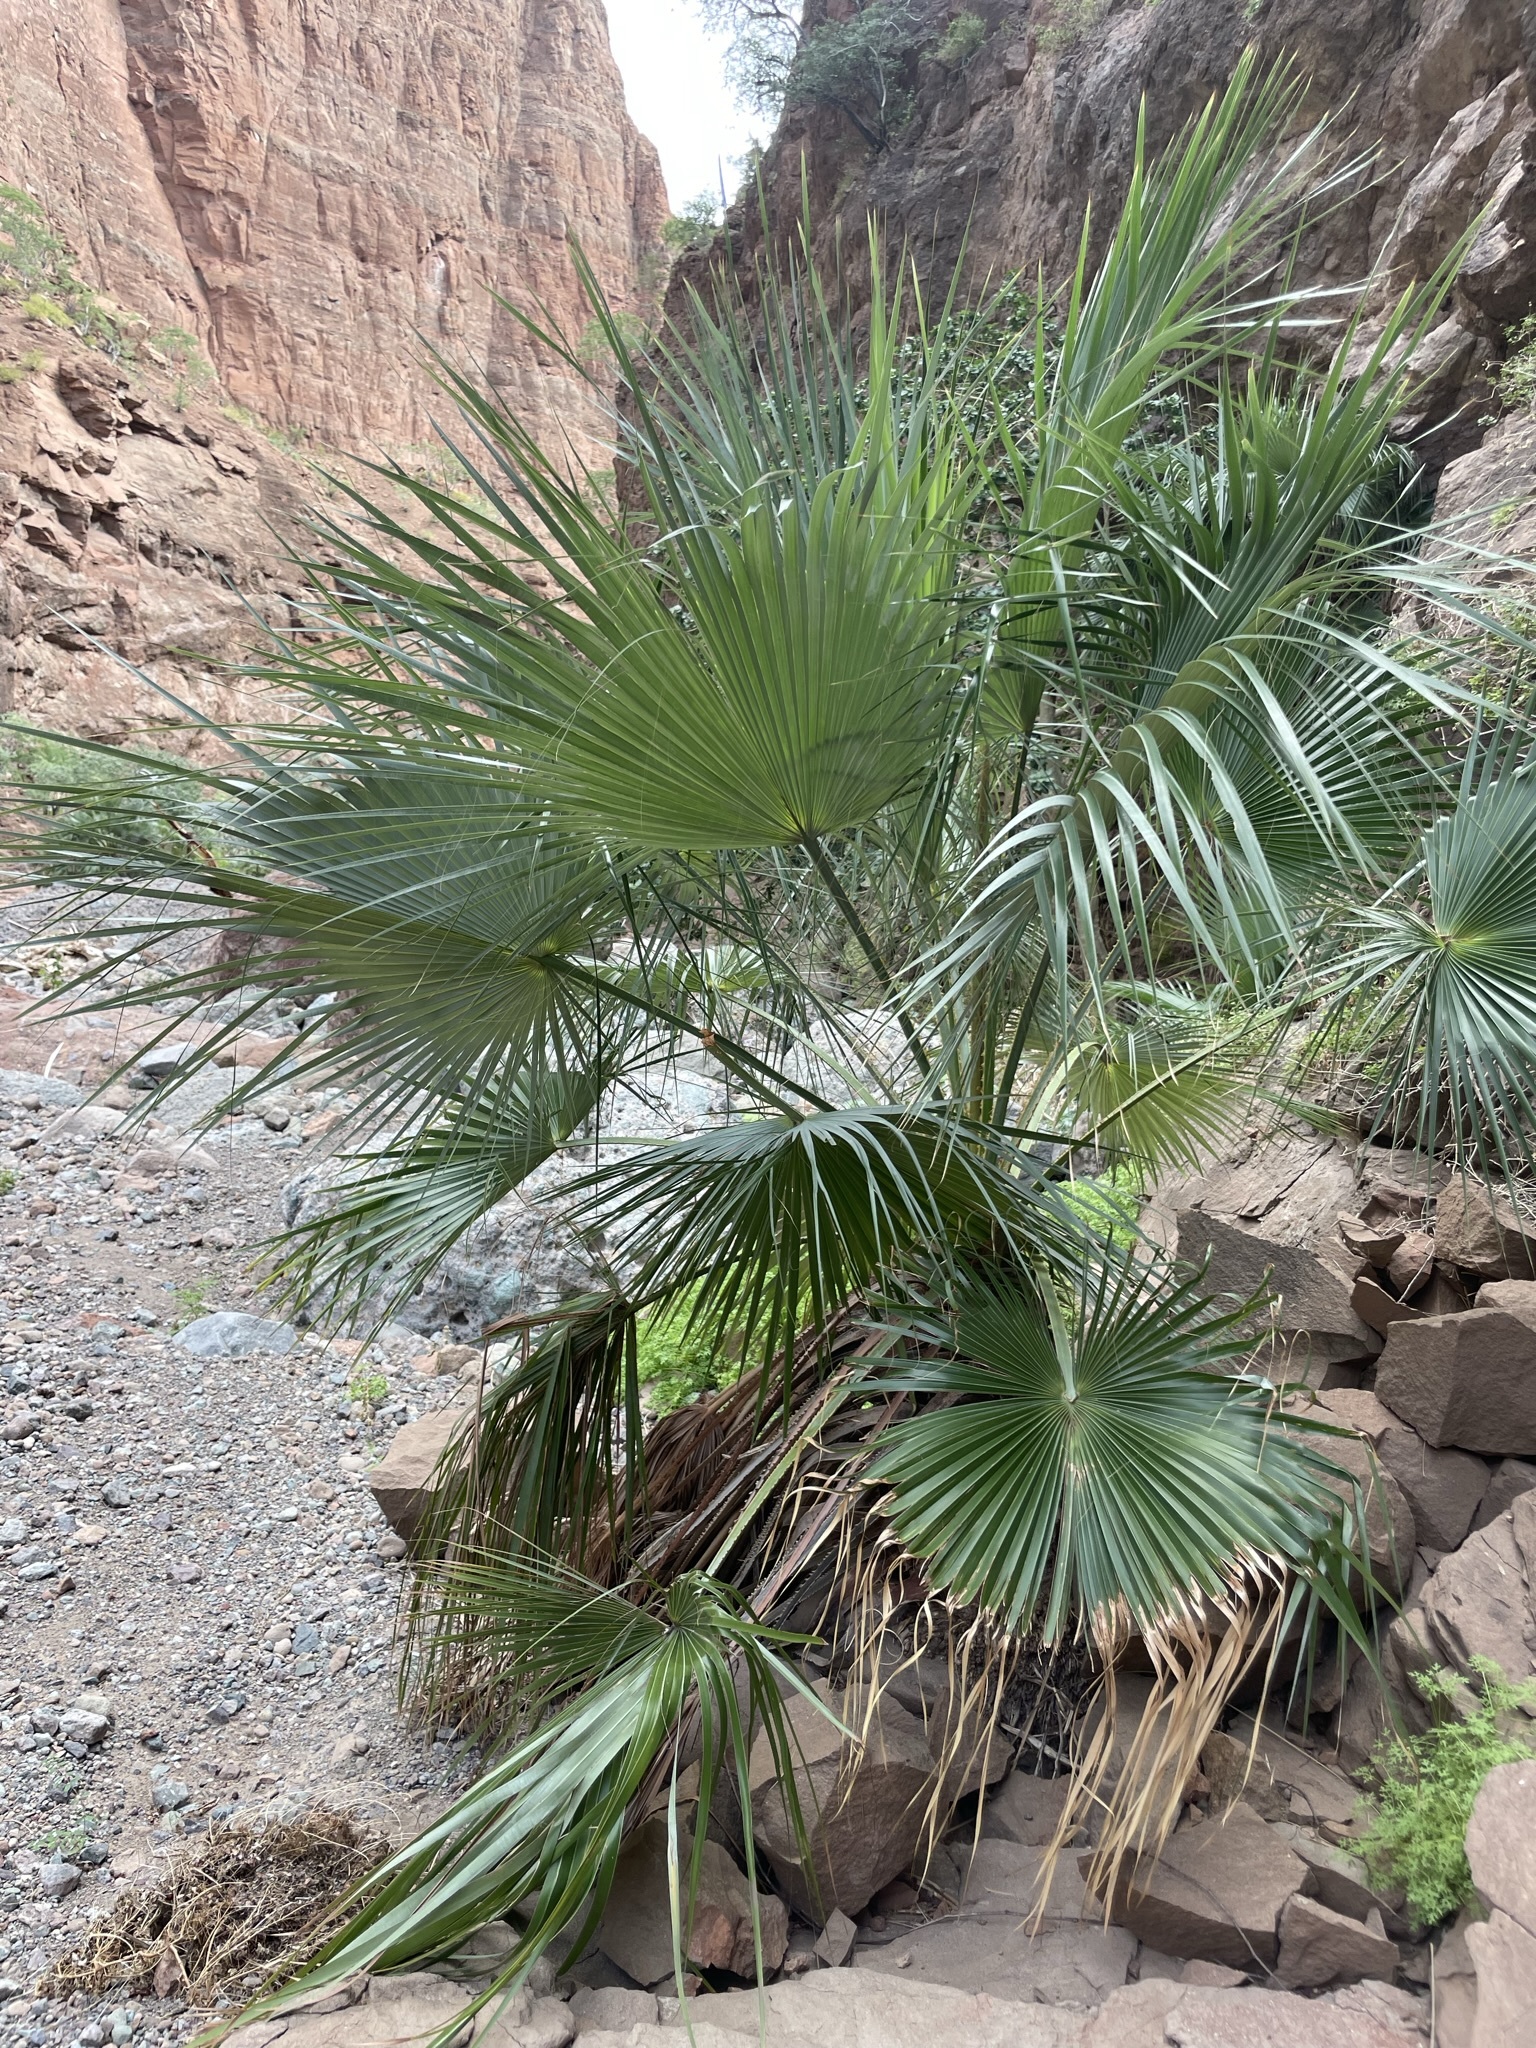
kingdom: Plantae
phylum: Tracheophyta
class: Liliopsida
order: Arecales
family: Arecaceae
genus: Washingtonia
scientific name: Washingtonia robusta
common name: Mexican fan palm
